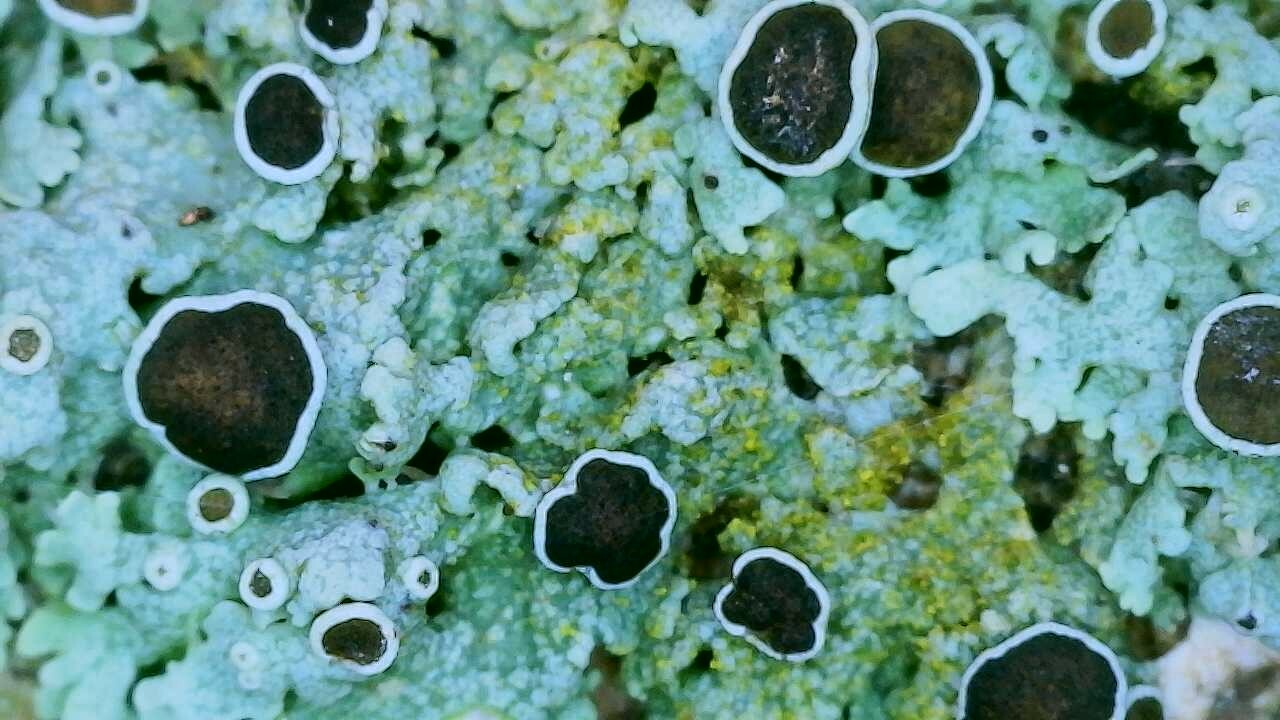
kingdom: Fungi
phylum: Ascomycota
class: Lecanoromycetes
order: Caliciales
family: Physciaceae
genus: Physcia
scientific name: Physcia pumilior
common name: Lesser gray legs
